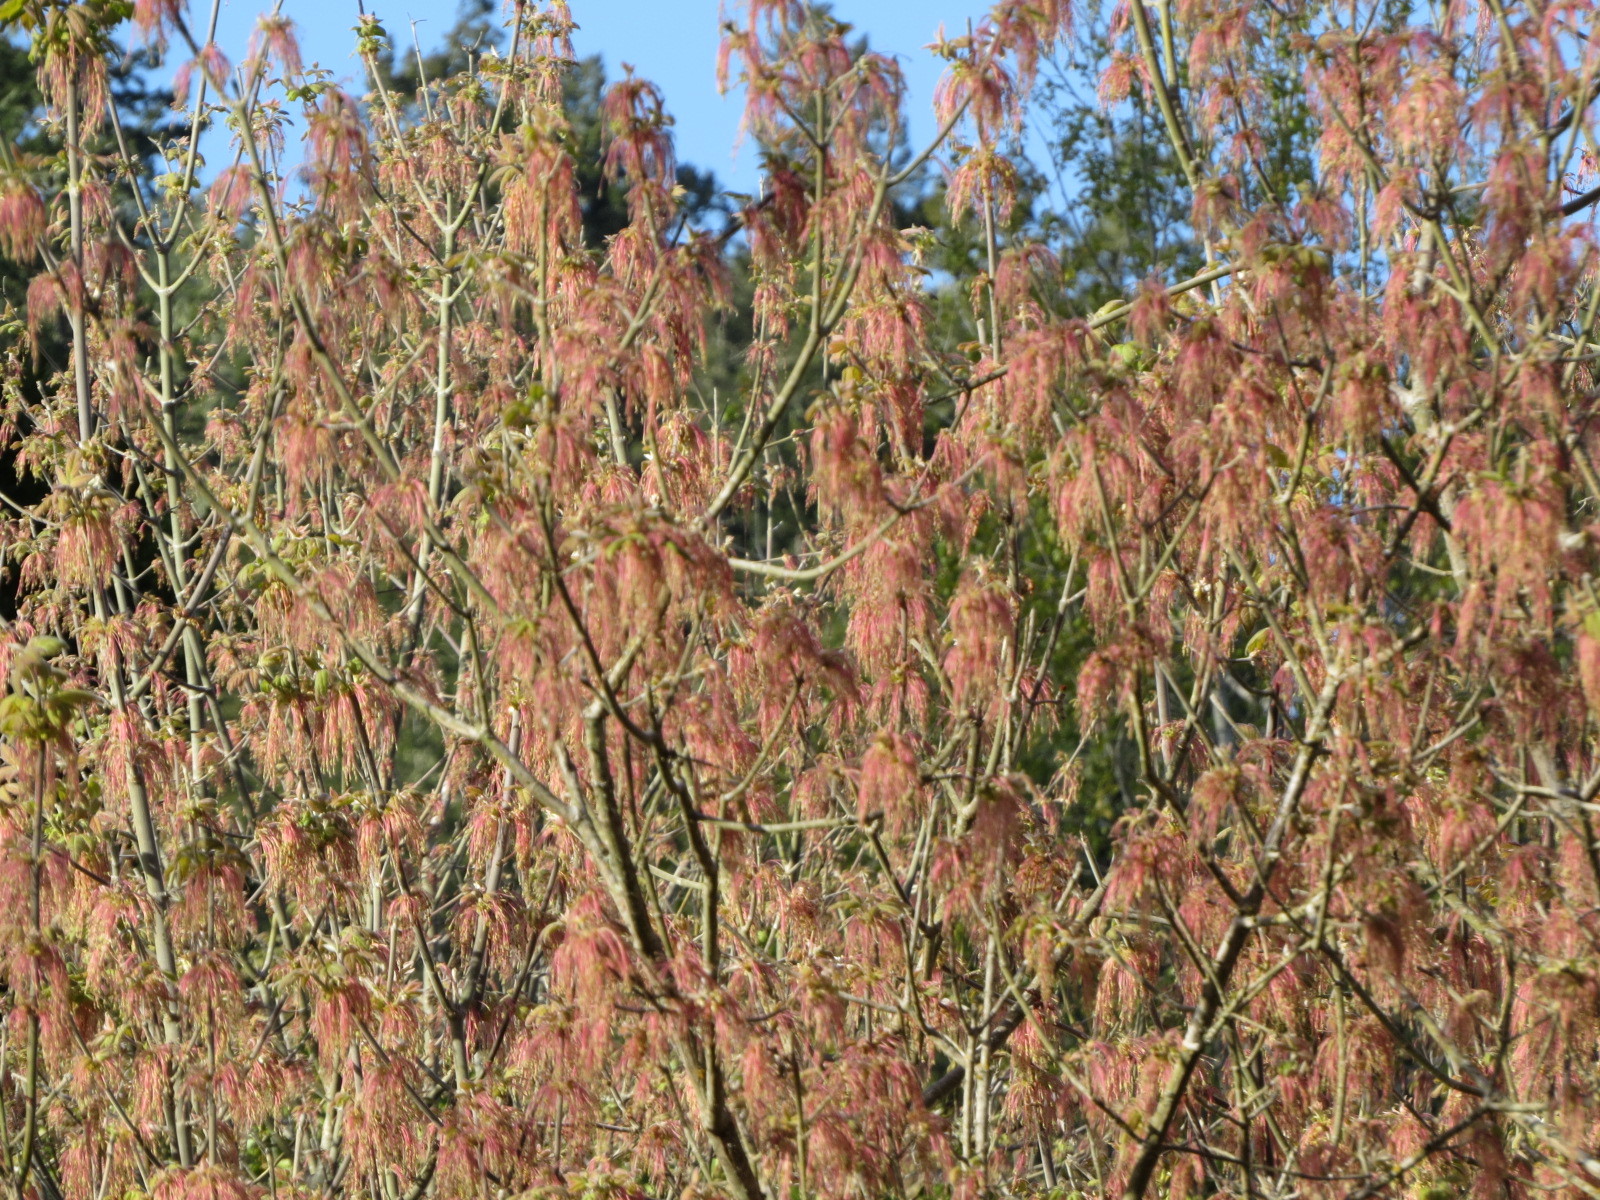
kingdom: Plantae
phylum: Tracheophyta
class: Magnoliopsida
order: Sapindales
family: Sapindaceae
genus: Acer
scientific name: Acer negundo
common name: Ashleaf maple
